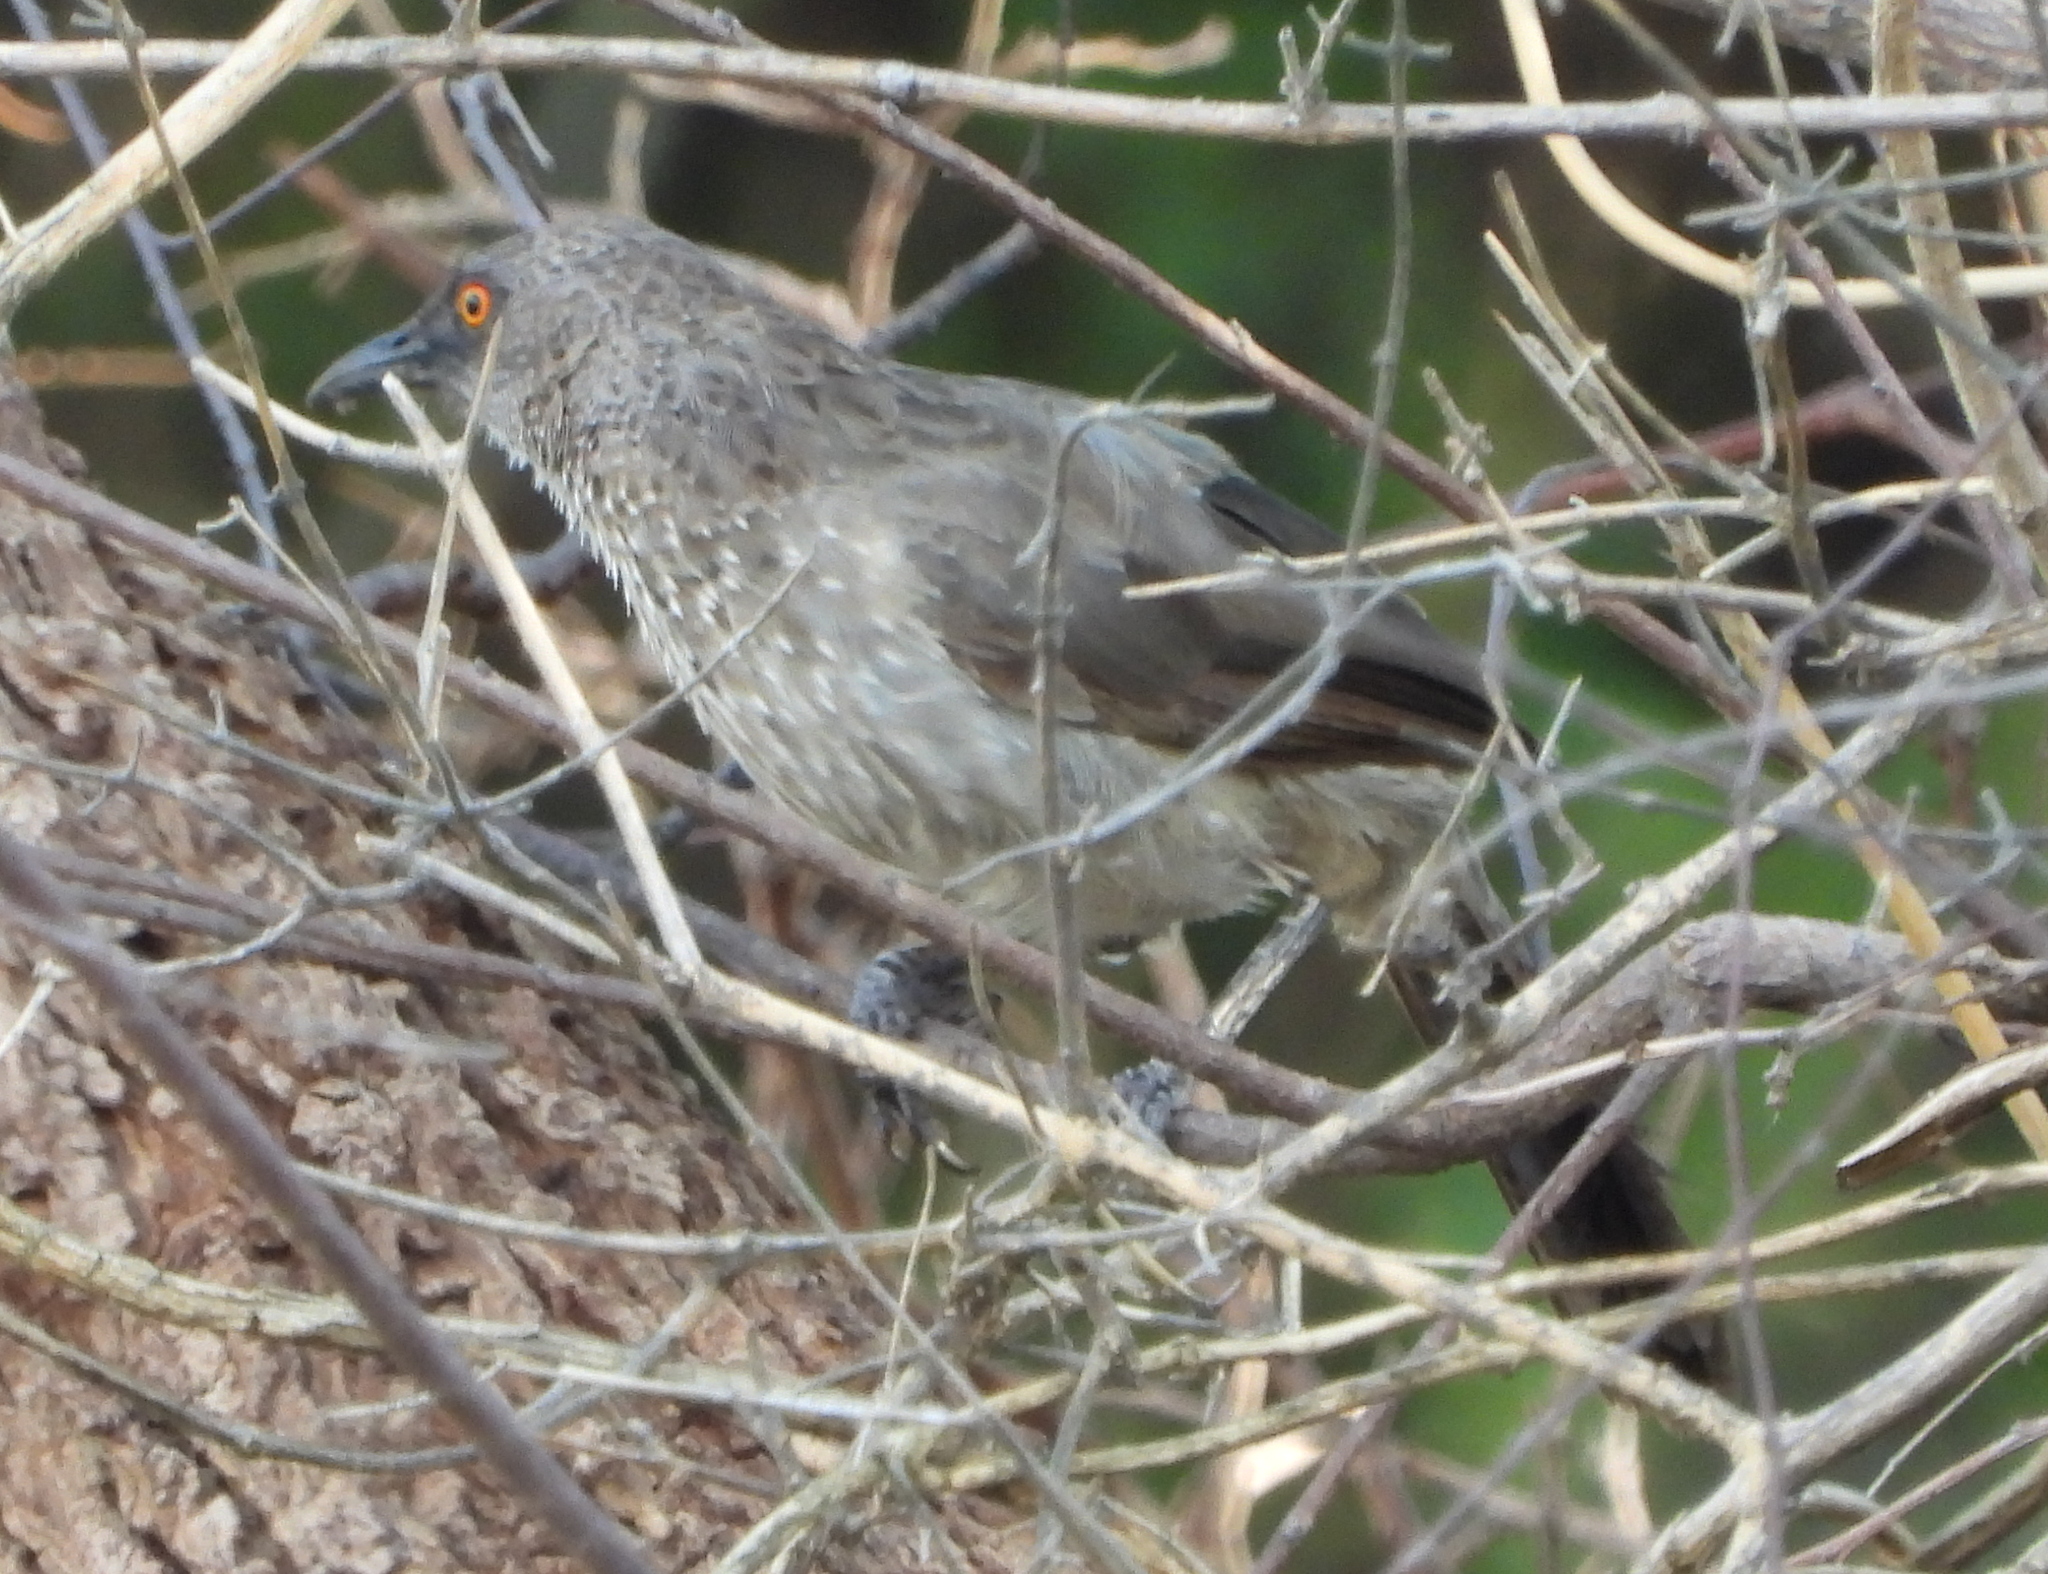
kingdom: Animalia
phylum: Chordata
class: Aves
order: Passeriformes
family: Leiothrichidae
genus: Turdoides
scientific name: Turdoides jardineii
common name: Arrow-marked babbler
